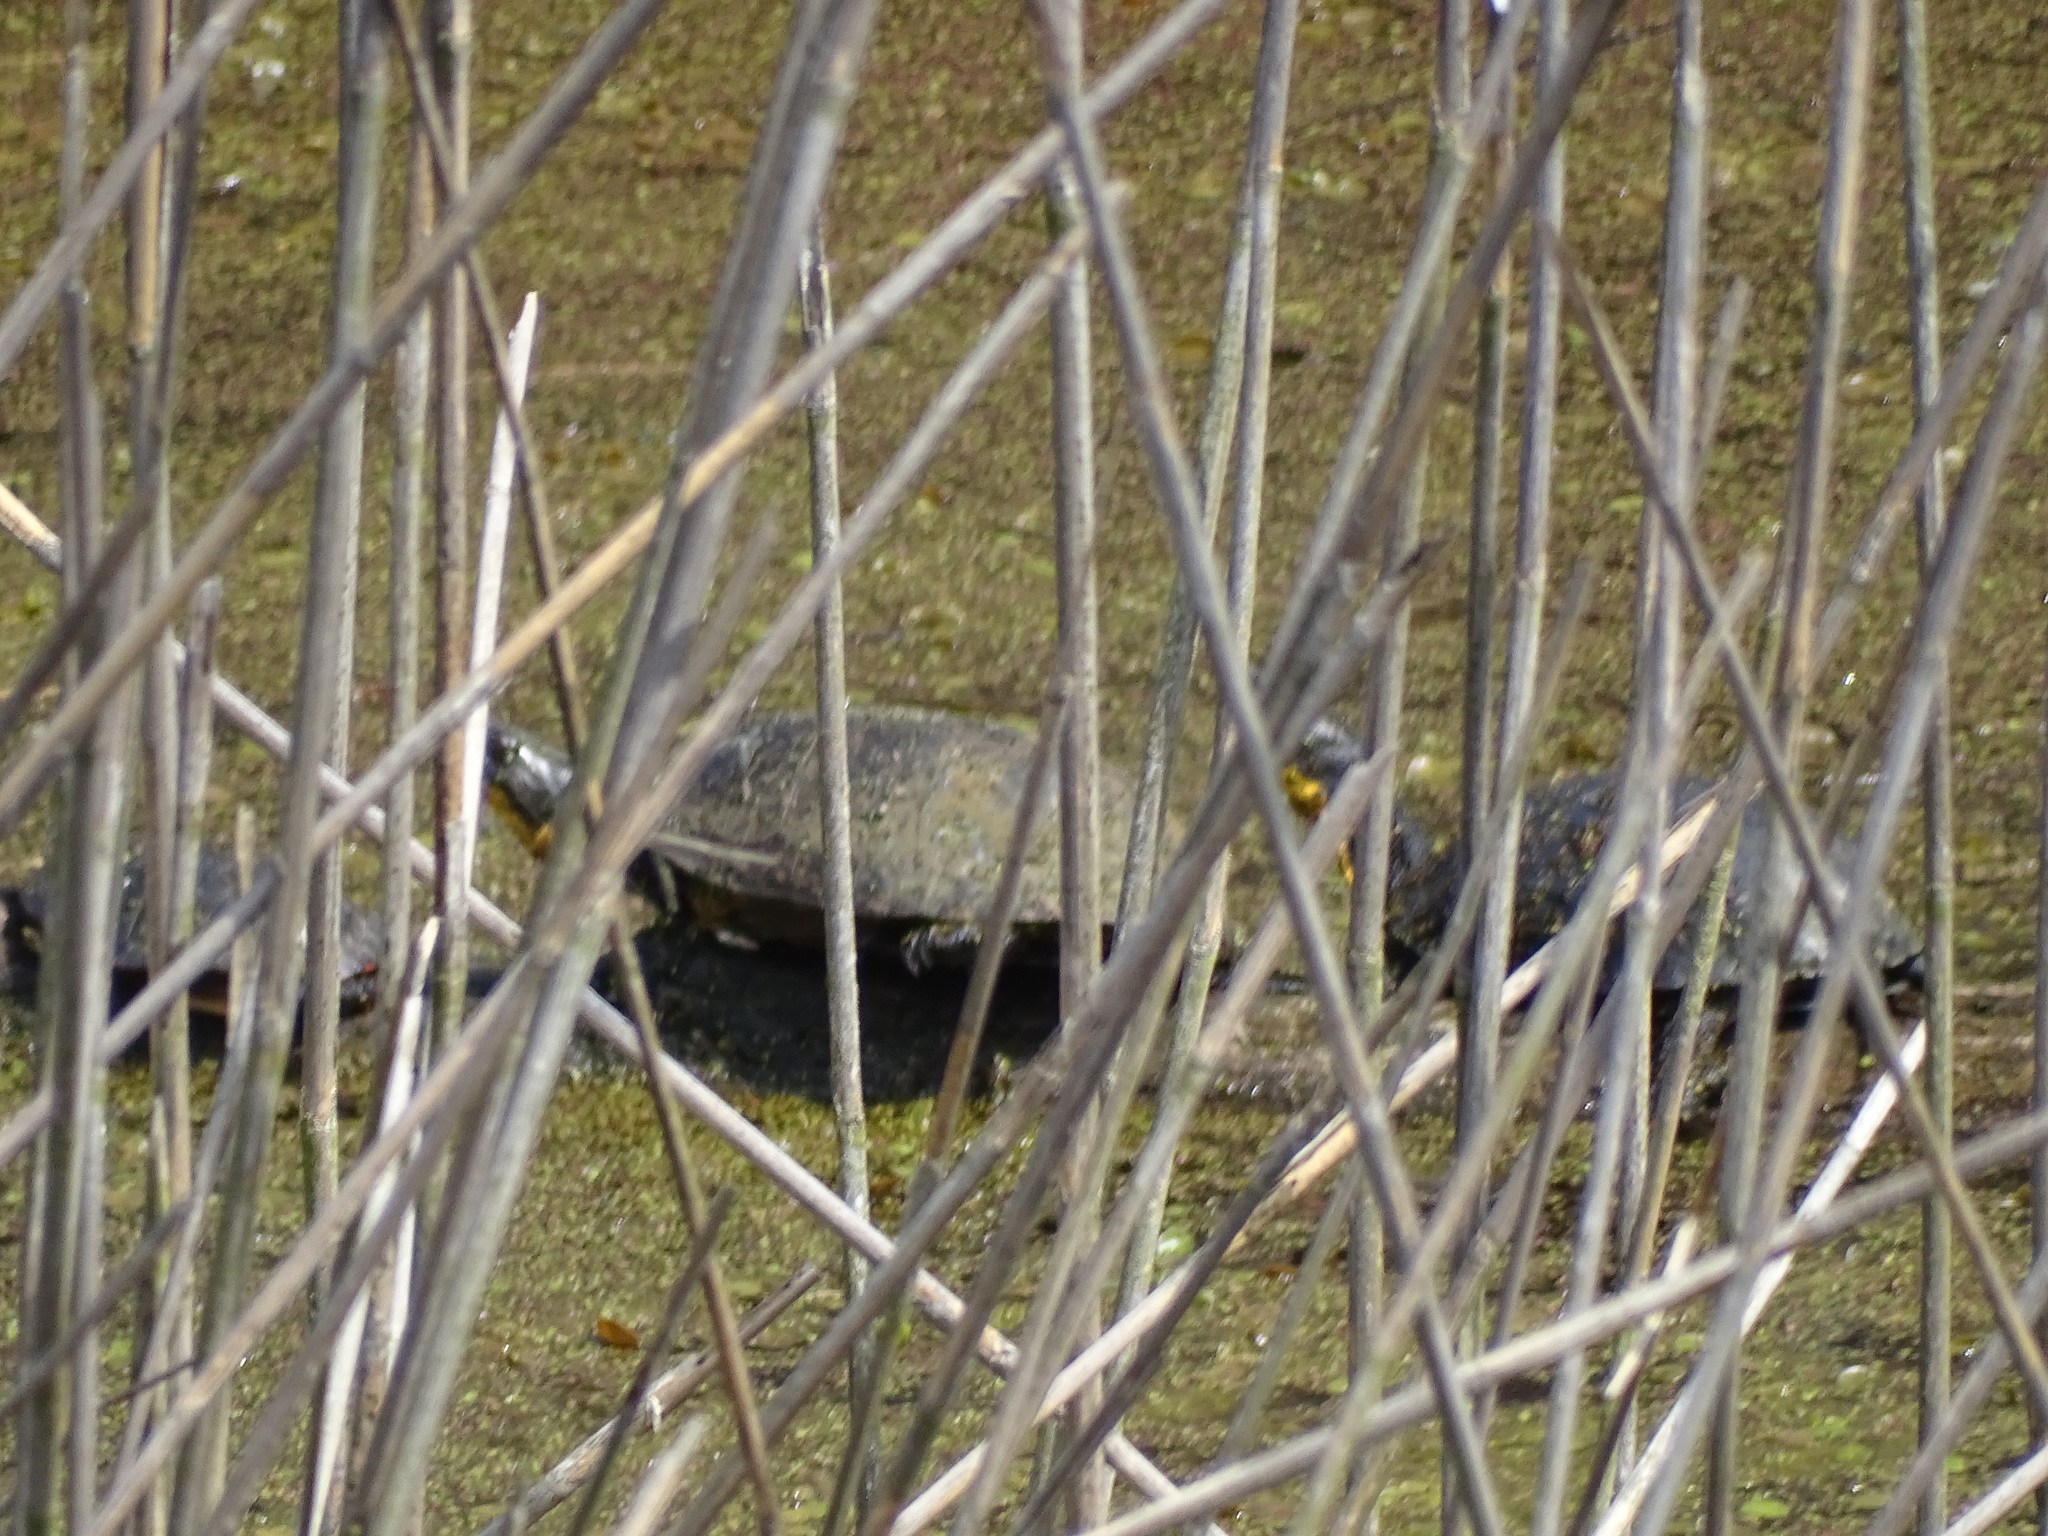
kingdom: Animalia
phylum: Chordata
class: Testudines
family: Emydidae
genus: Emys
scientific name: Emys blandingii
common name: Blanding's turtle
